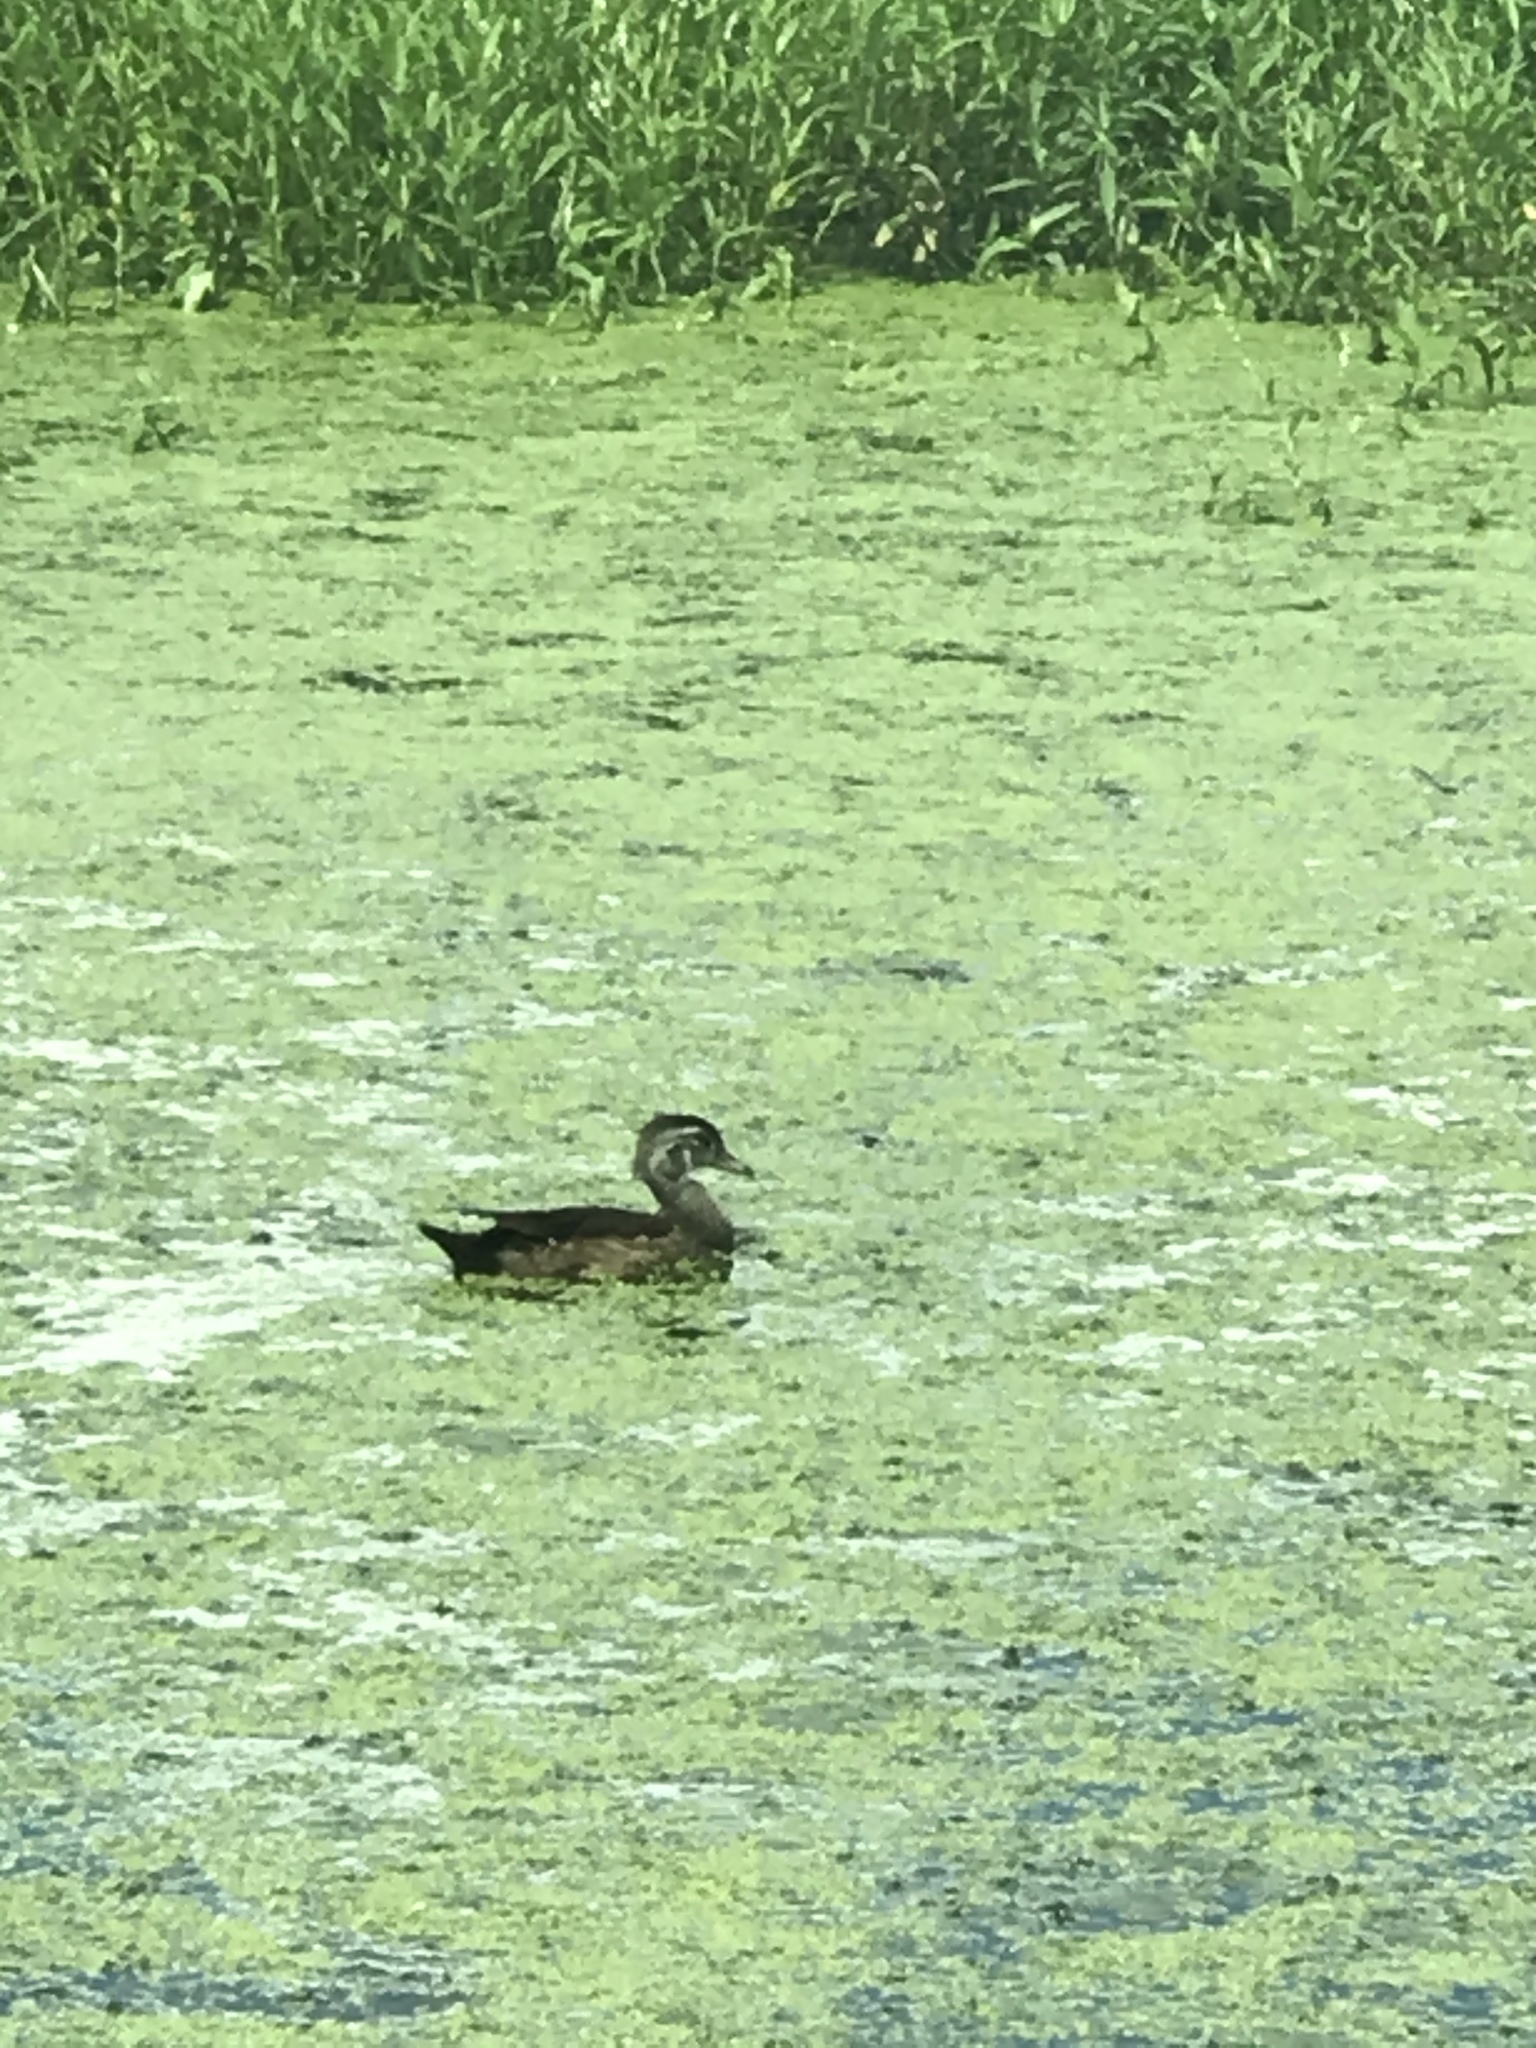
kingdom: Animalia
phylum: Chordata
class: Aves
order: Anseriformes
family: Anatidae
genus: Aix
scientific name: Aix sponsa
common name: Wood duck
